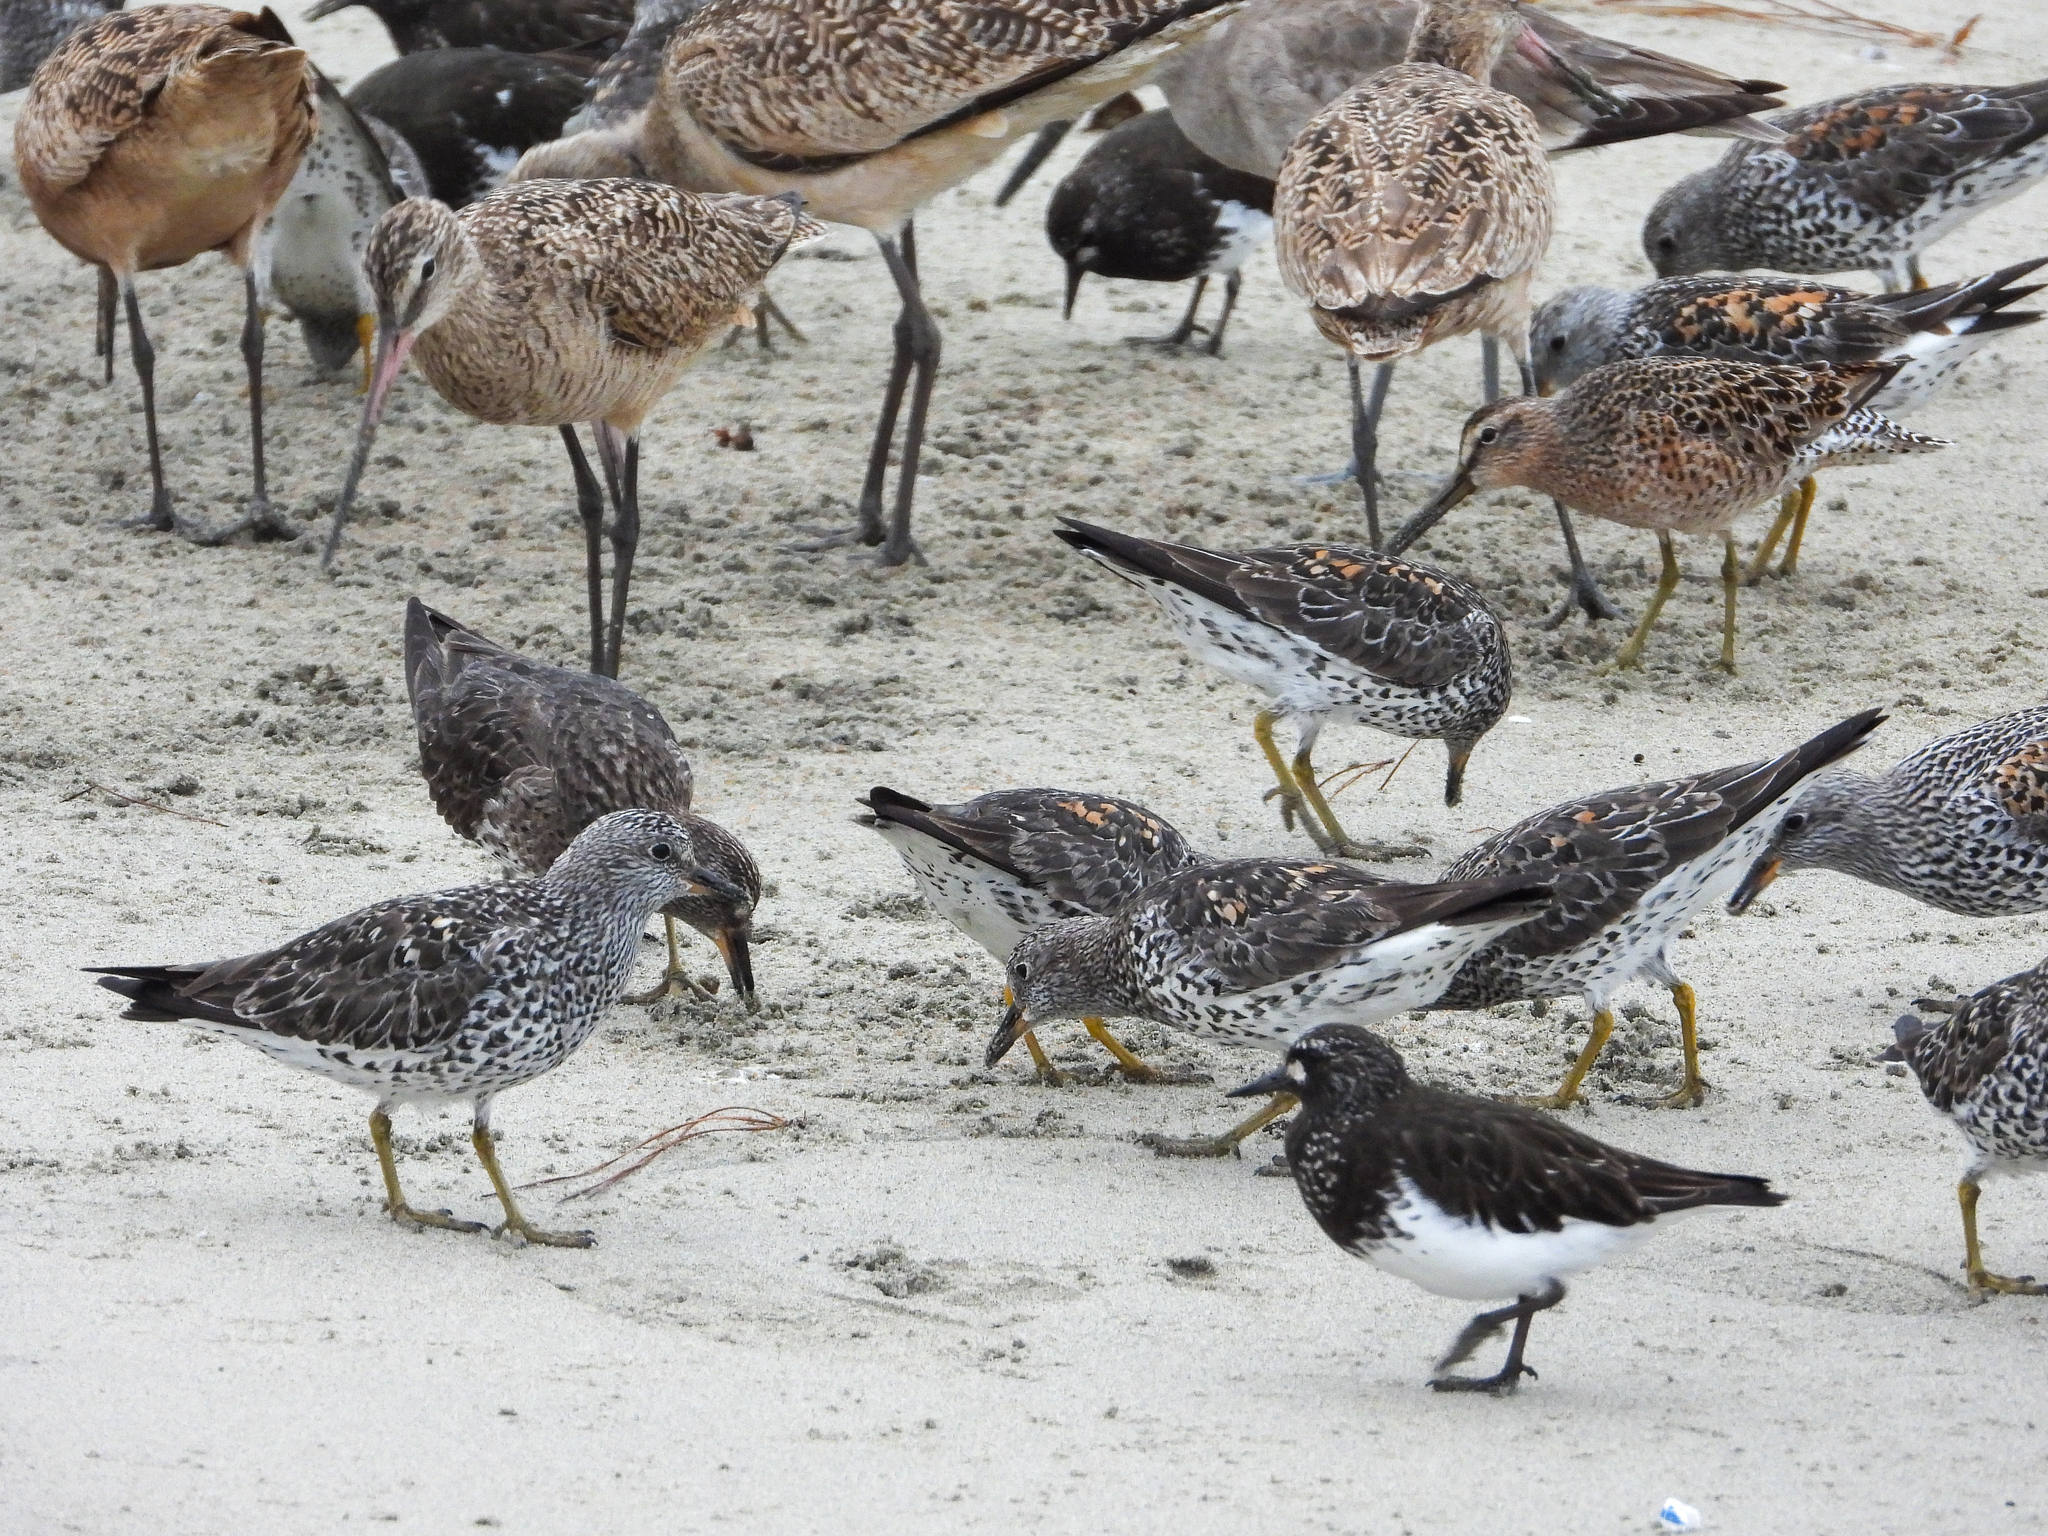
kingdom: Animalia
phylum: Chordata
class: Aves
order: Charadriiformes
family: Scolopacidae
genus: Arenaria
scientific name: Arenaria melanocephala
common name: Black turnstone
